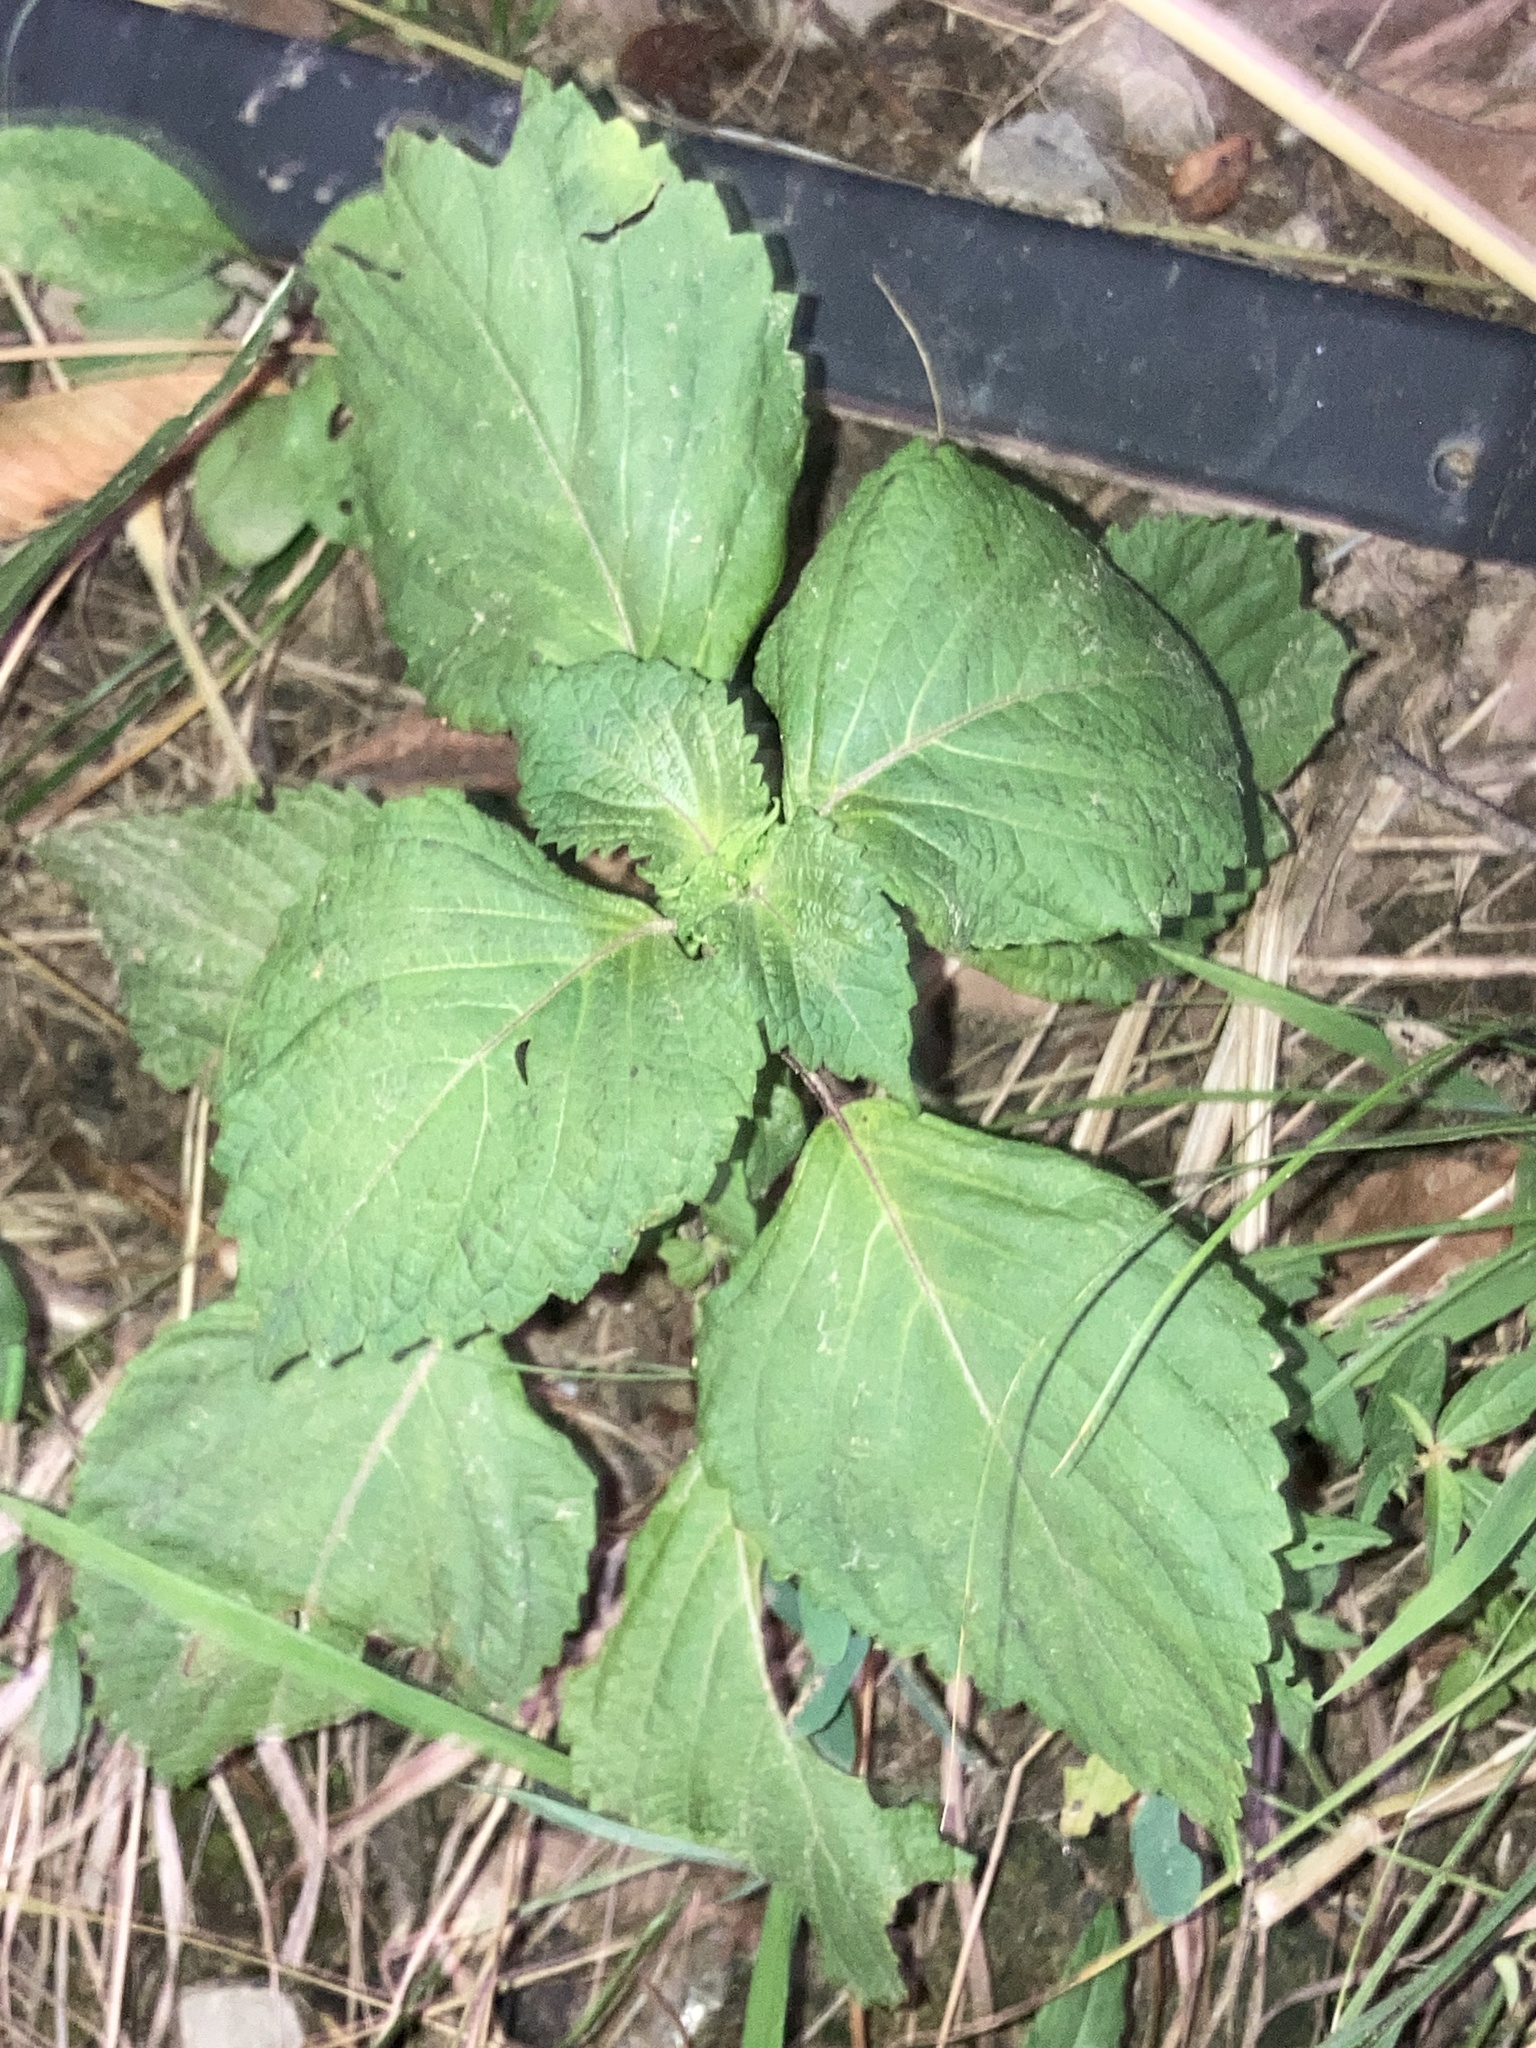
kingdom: Plantae
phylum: Tracheophyta
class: Magnoliopsida
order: Lamiales
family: Lamiaceae
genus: Perilla
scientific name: Perilla frutescens
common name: Perilla
